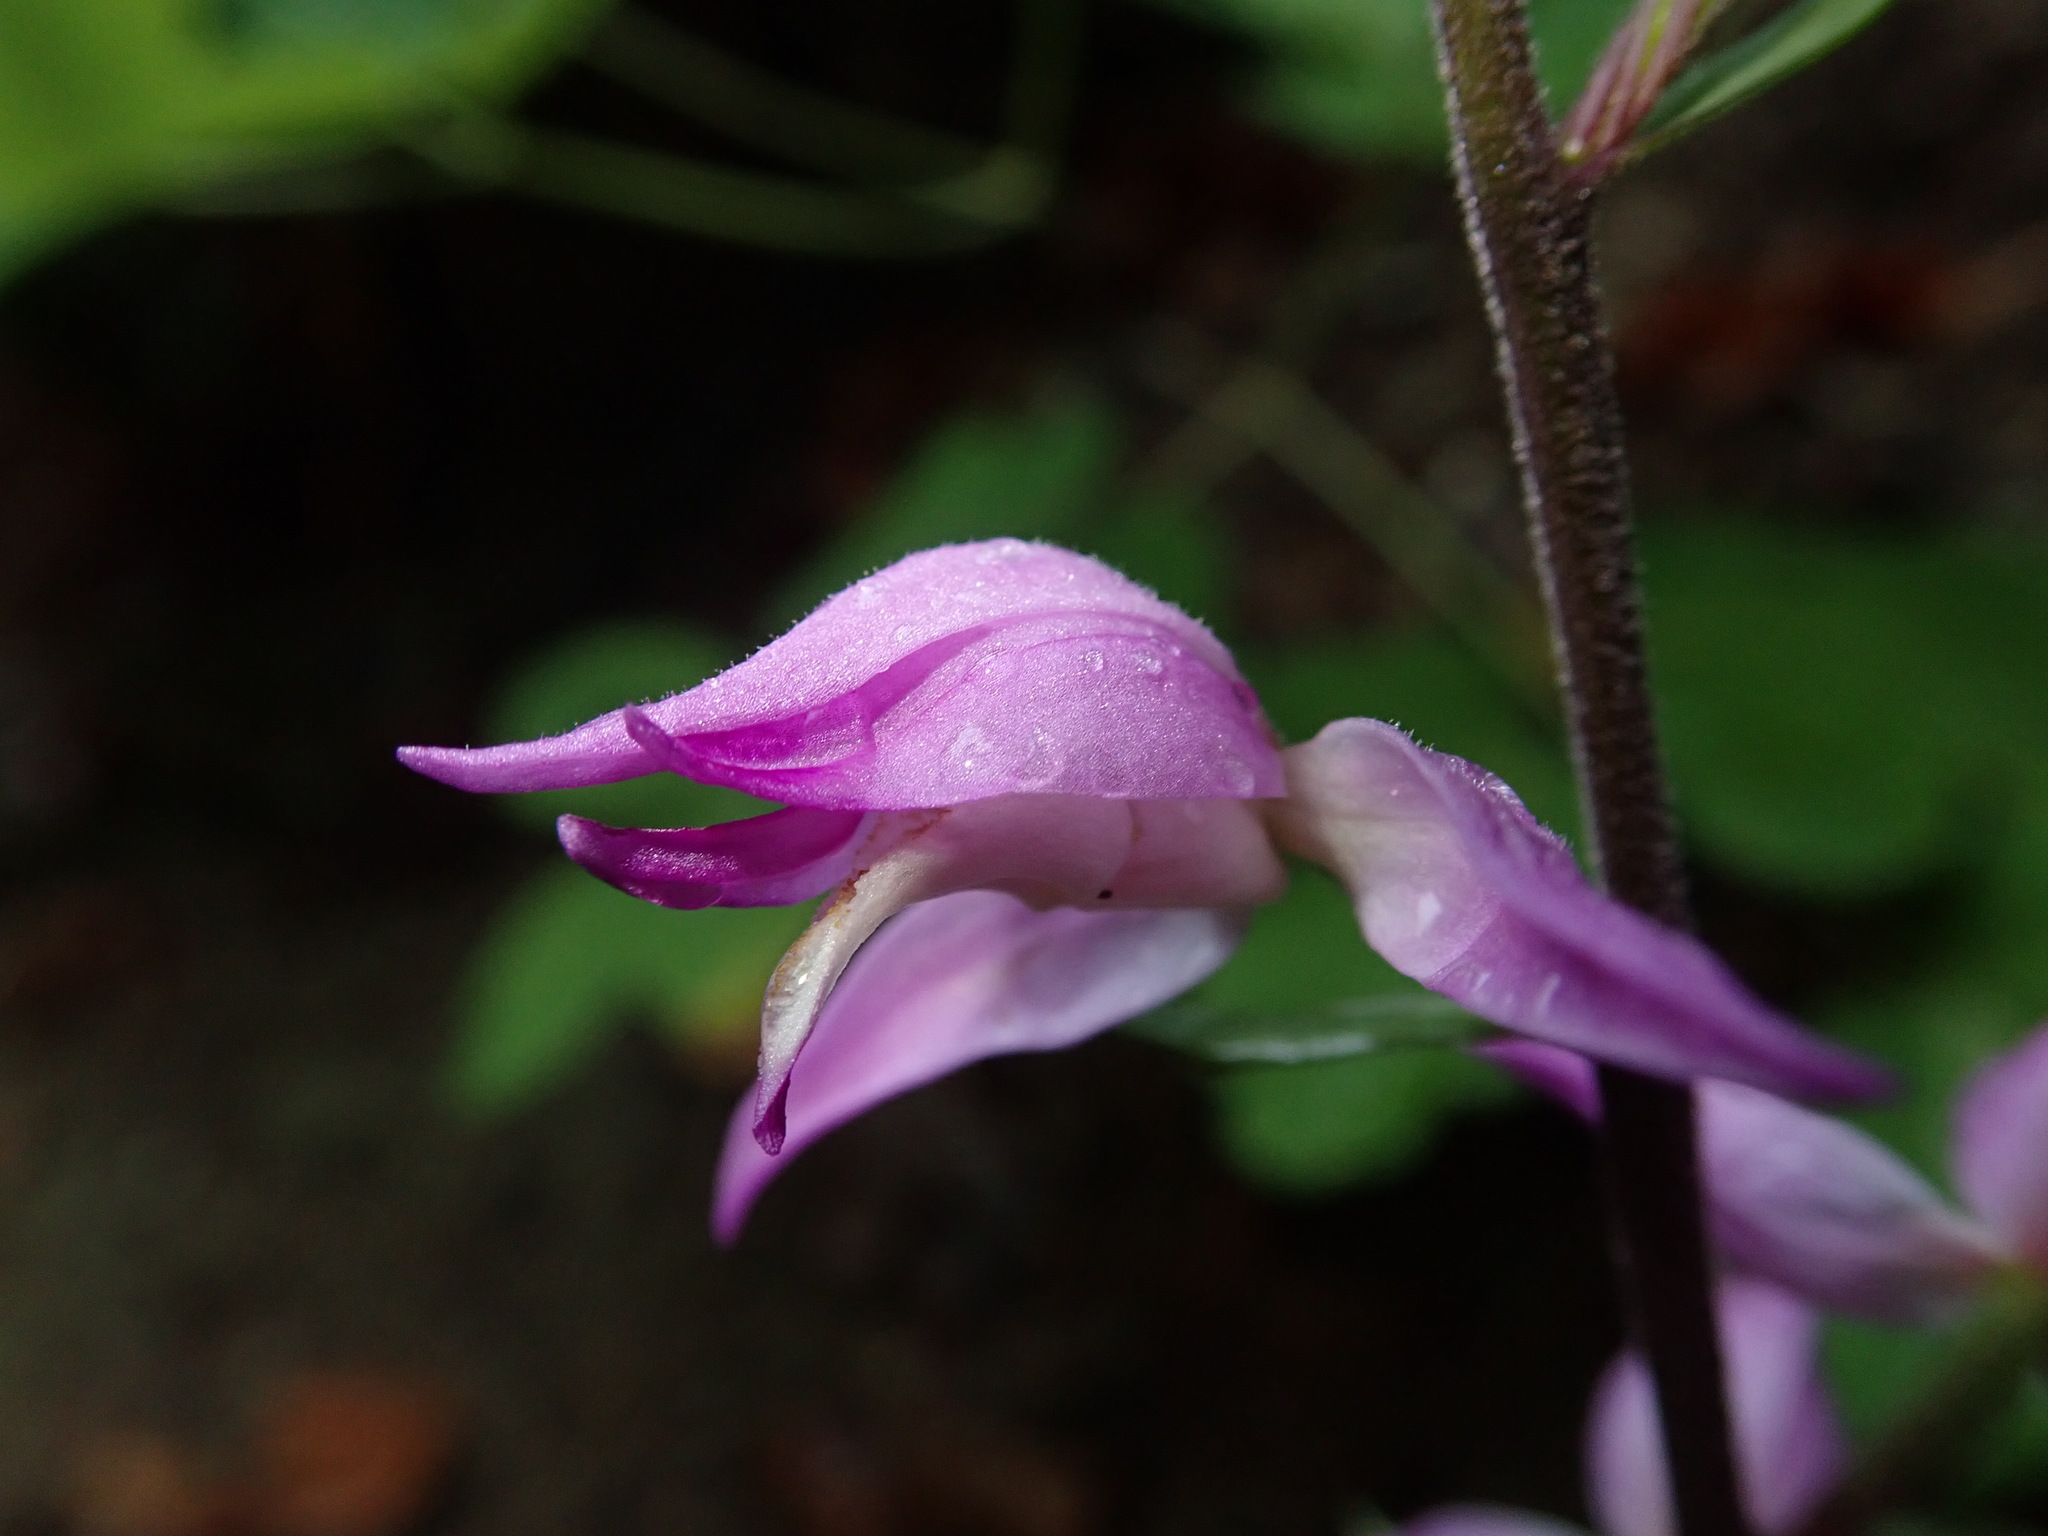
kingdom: Plantae
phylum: Tracheophyta
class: Liliopsida
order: Asparagales
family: Orchidaceae
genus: Cephalanthera
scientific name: Cephalanthera rubra
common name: Red helleborine
